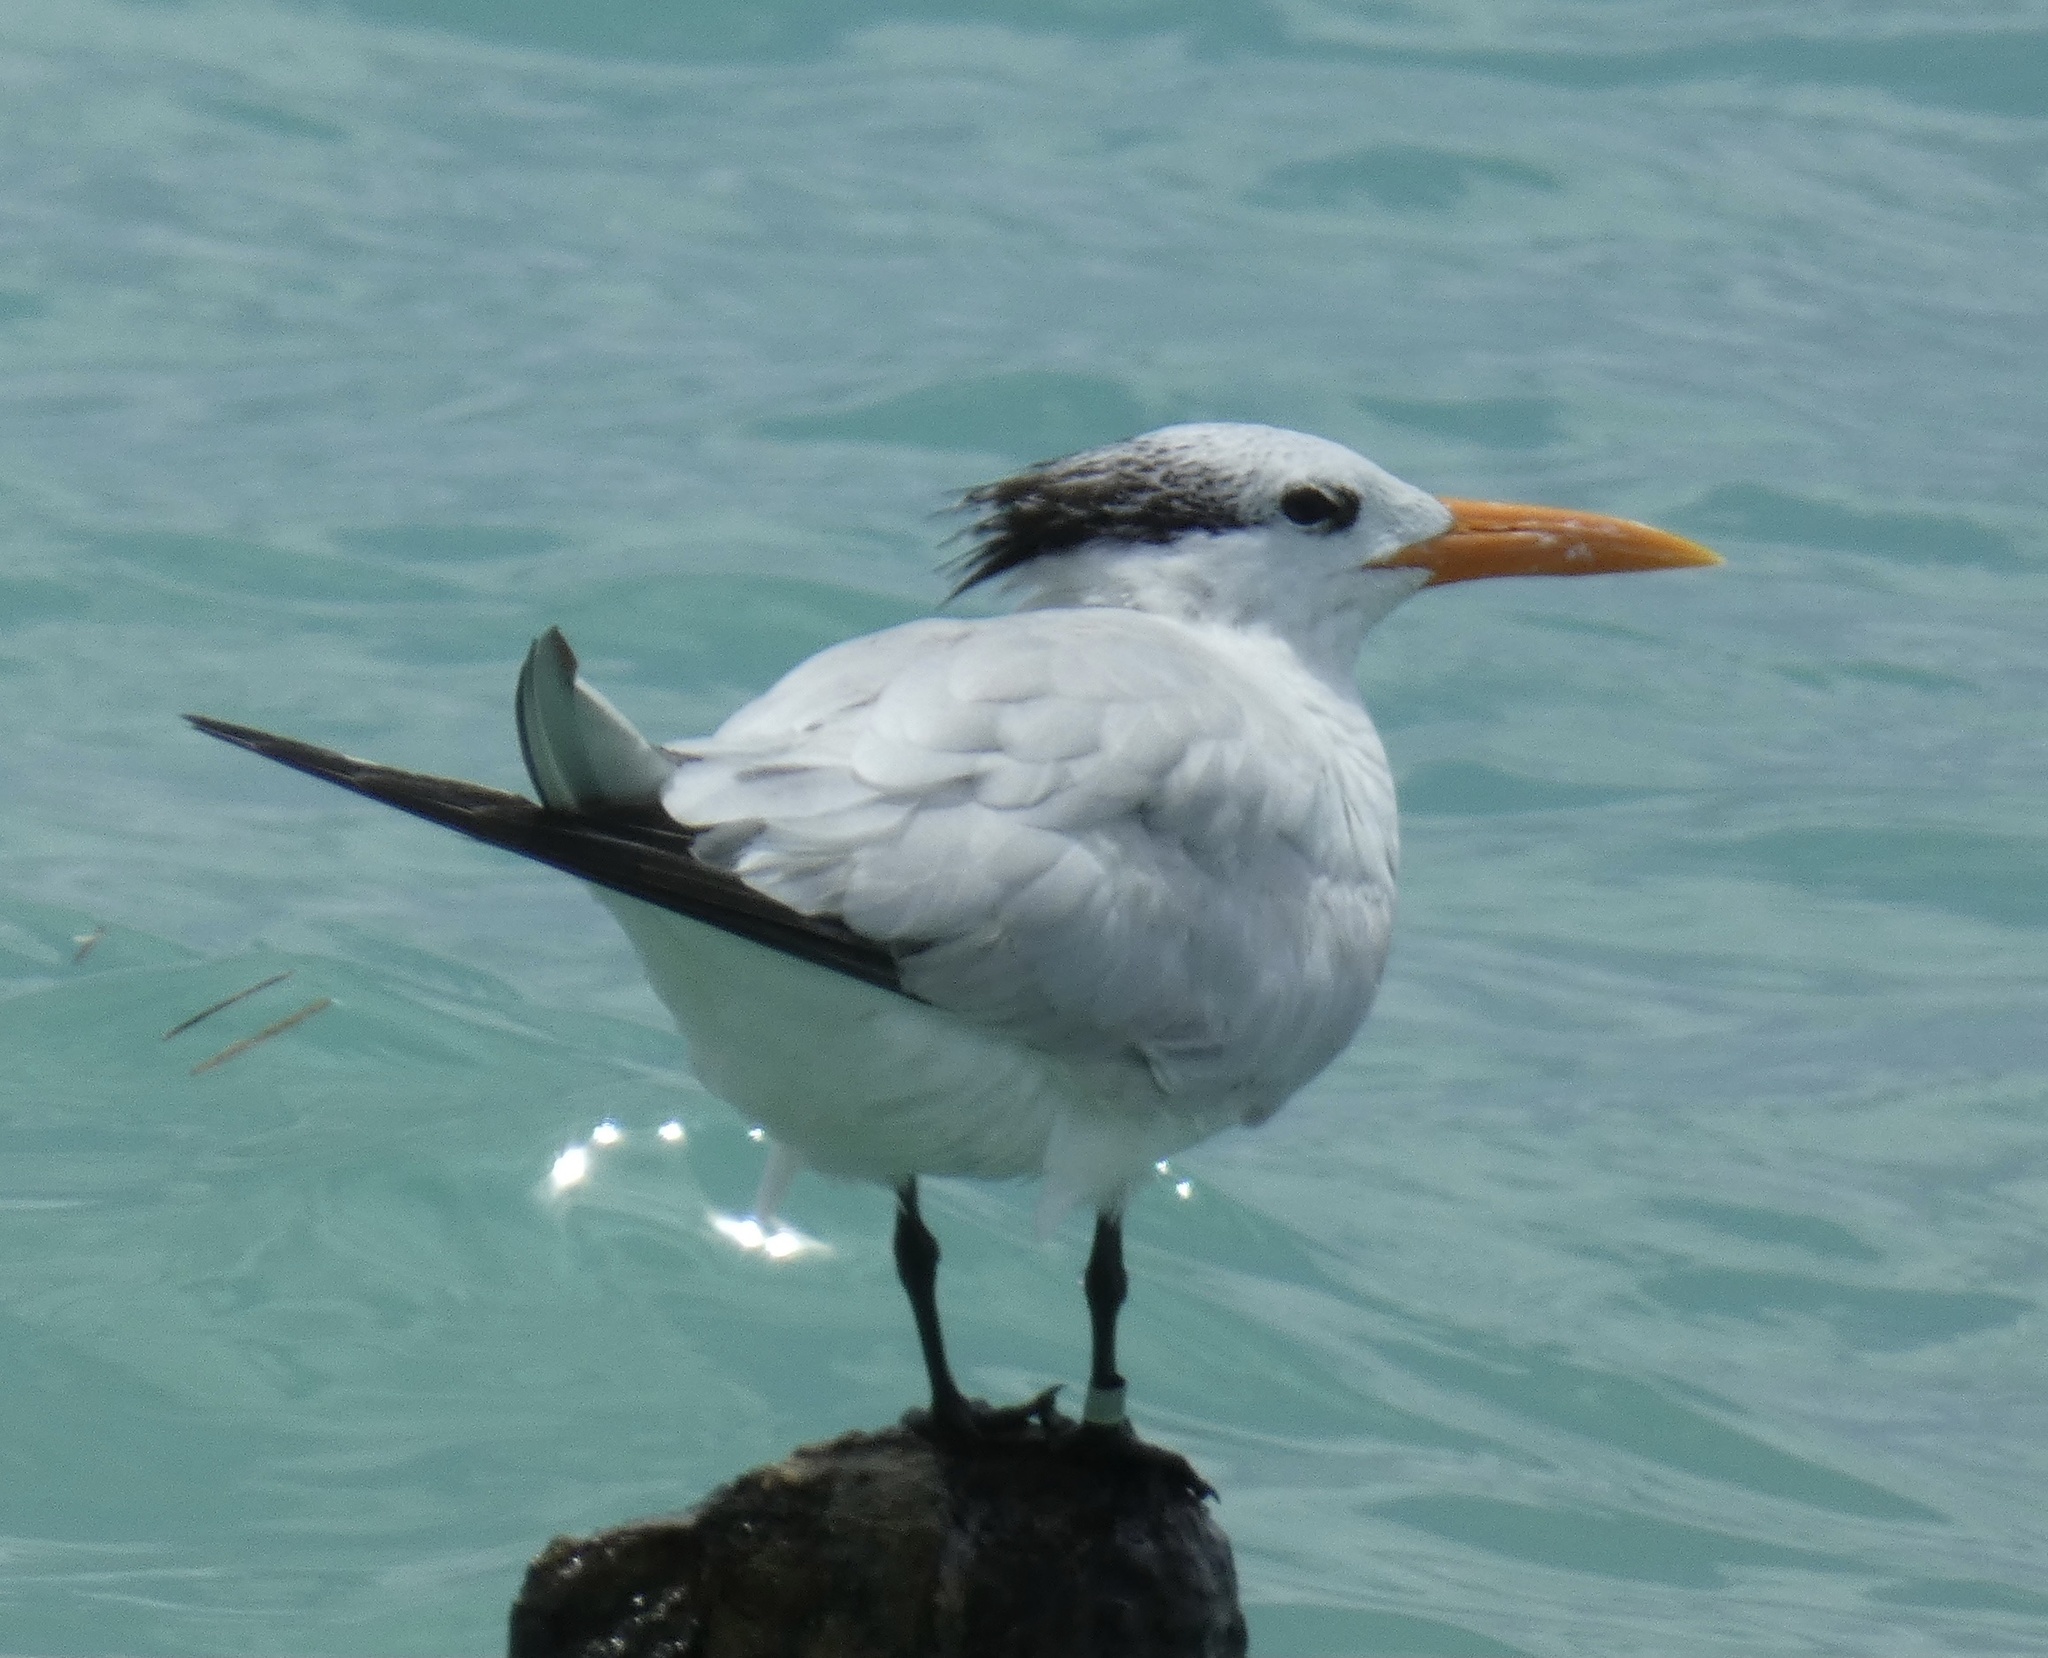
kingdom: Animalia
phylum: Chordata
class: Aves
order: Charadriiformes
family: Laridae
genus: Thalasseus
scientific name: Thalasseus maximus
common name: Royal tern
